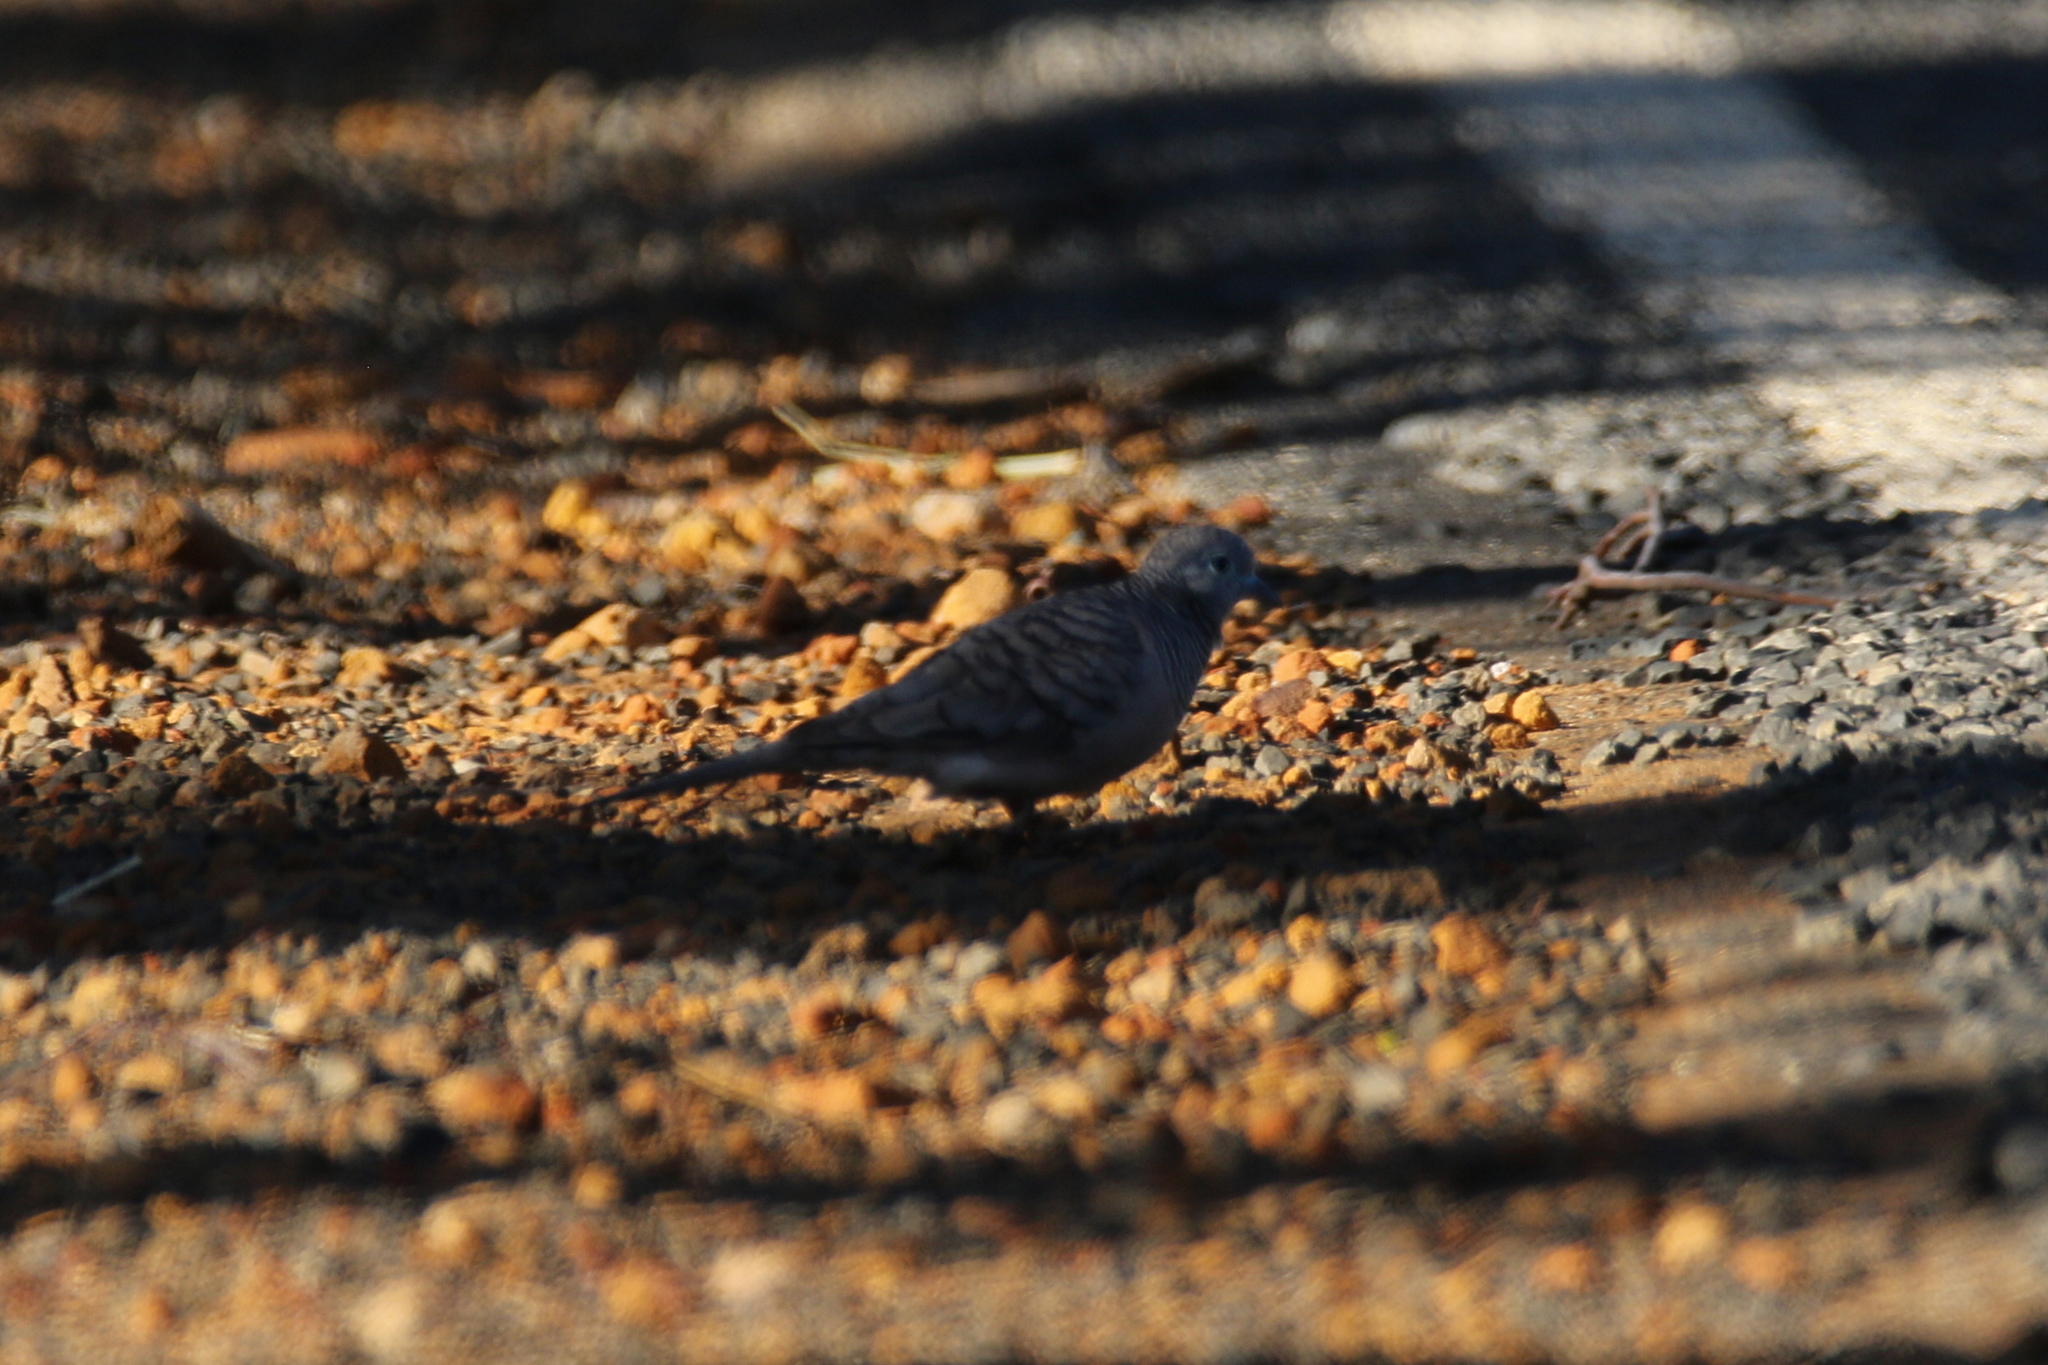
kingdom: Animalia
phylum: Chordata
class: Aves
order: Columbiformes
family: Columbidae
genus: Geopelia
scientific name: Geopelia placida
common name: Peaceful dove
